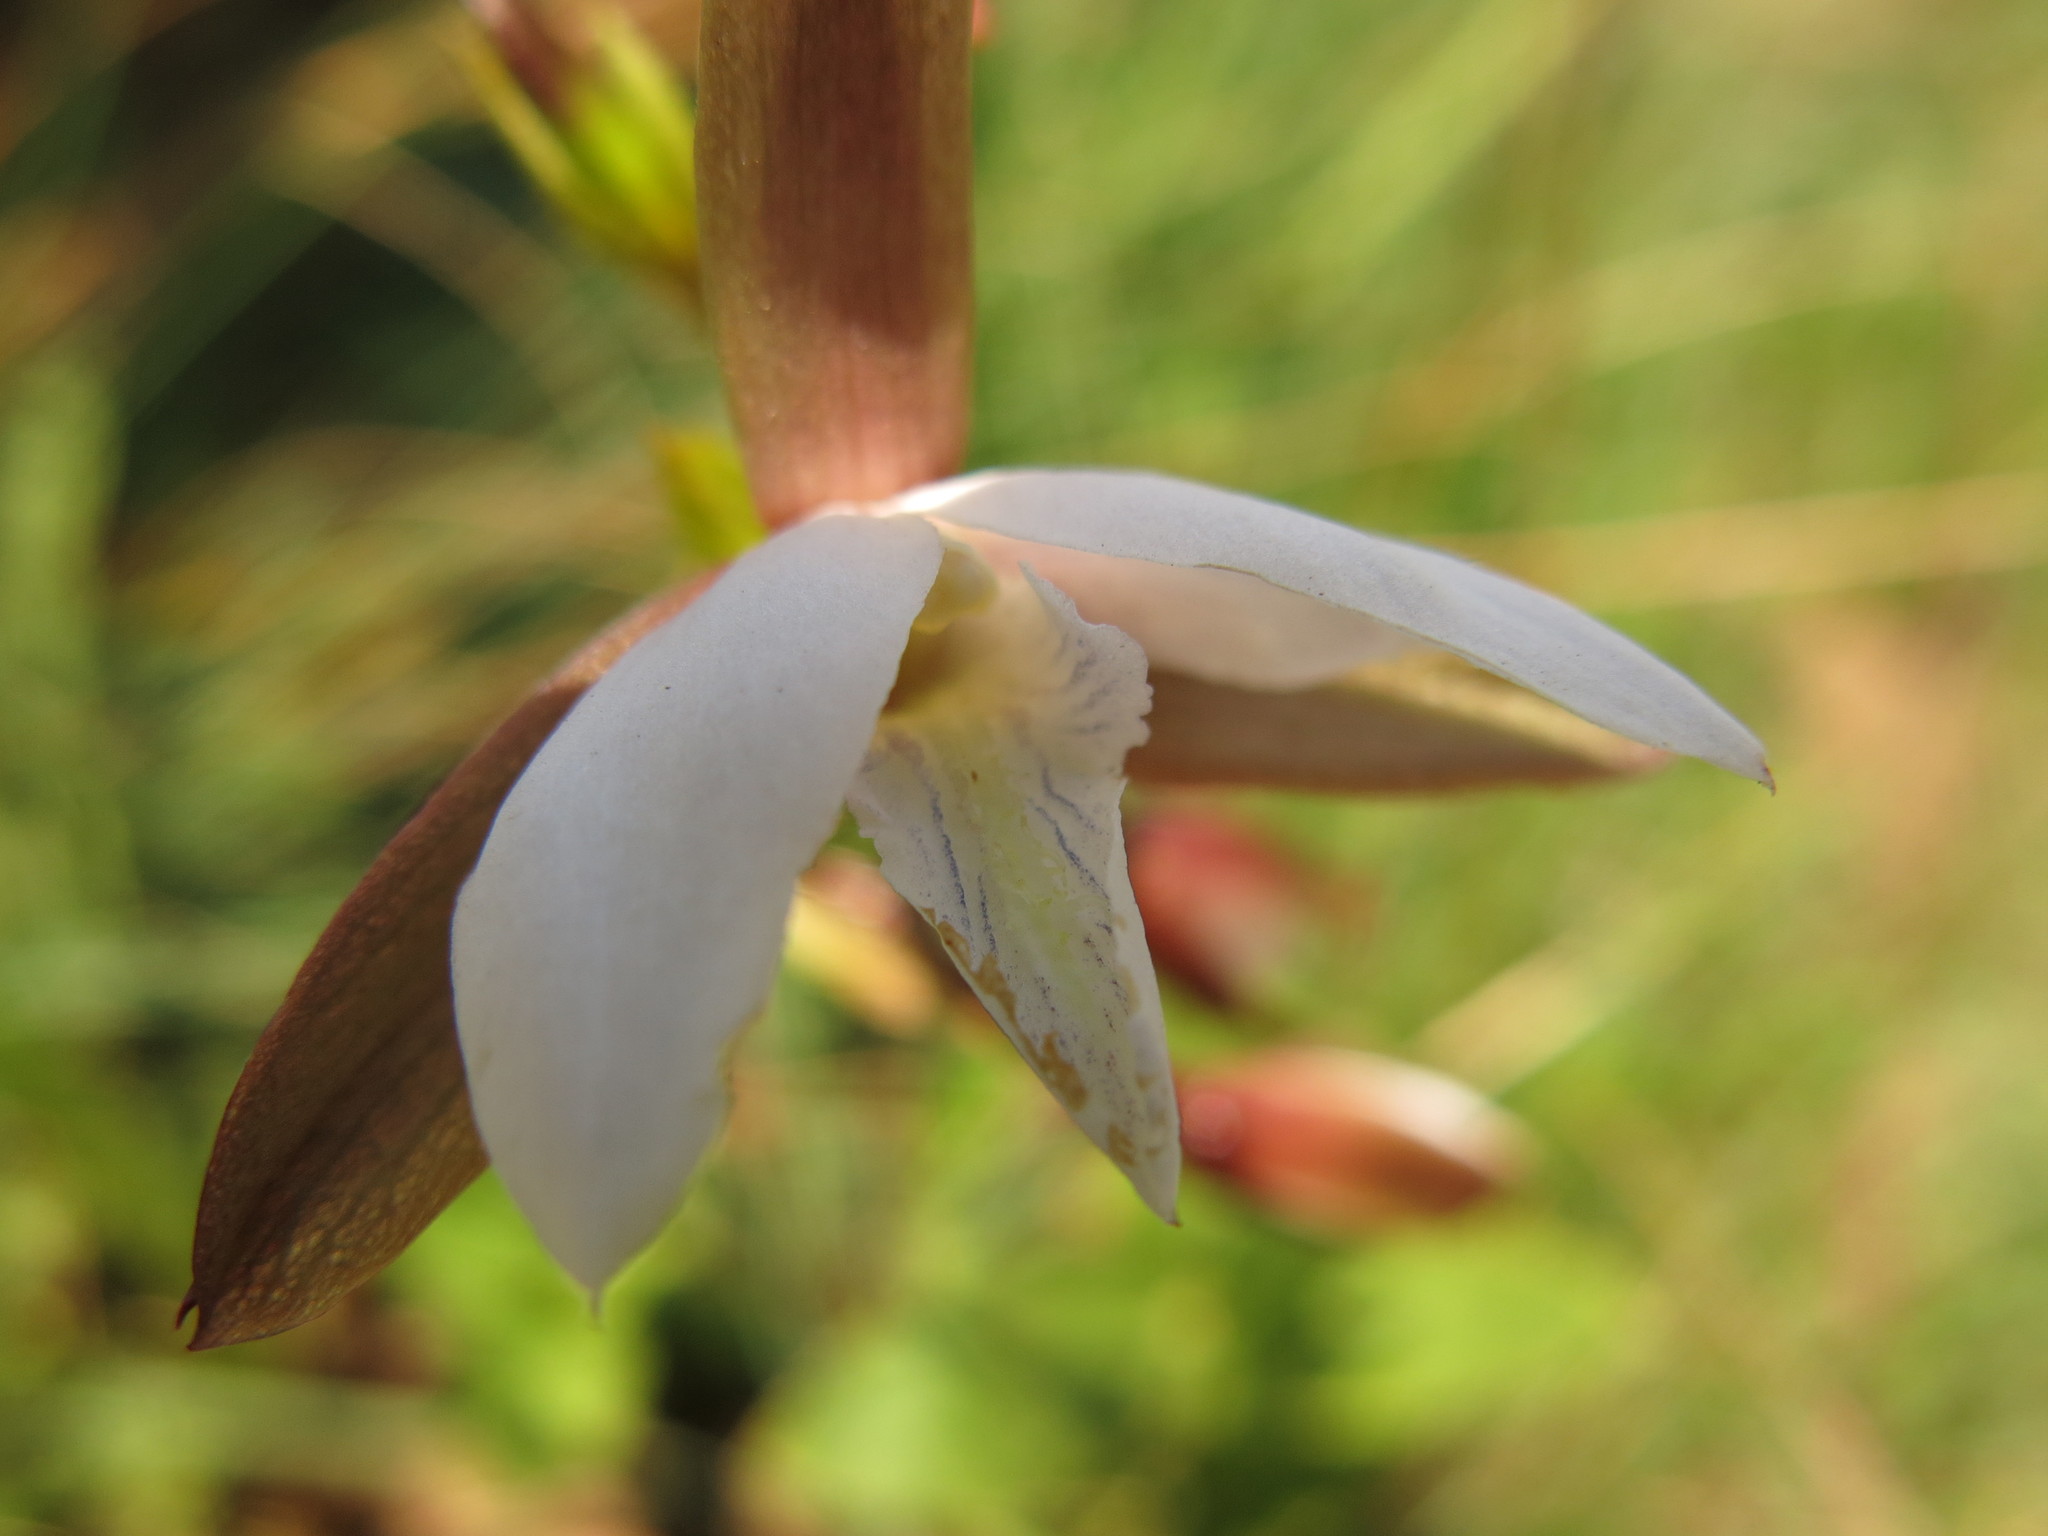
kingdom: Plantae
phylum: Tracheophyta
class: Liliopsida
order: Asparagales
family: Orchidaceae
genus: Eulophia
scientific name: Eulophia ovalis
